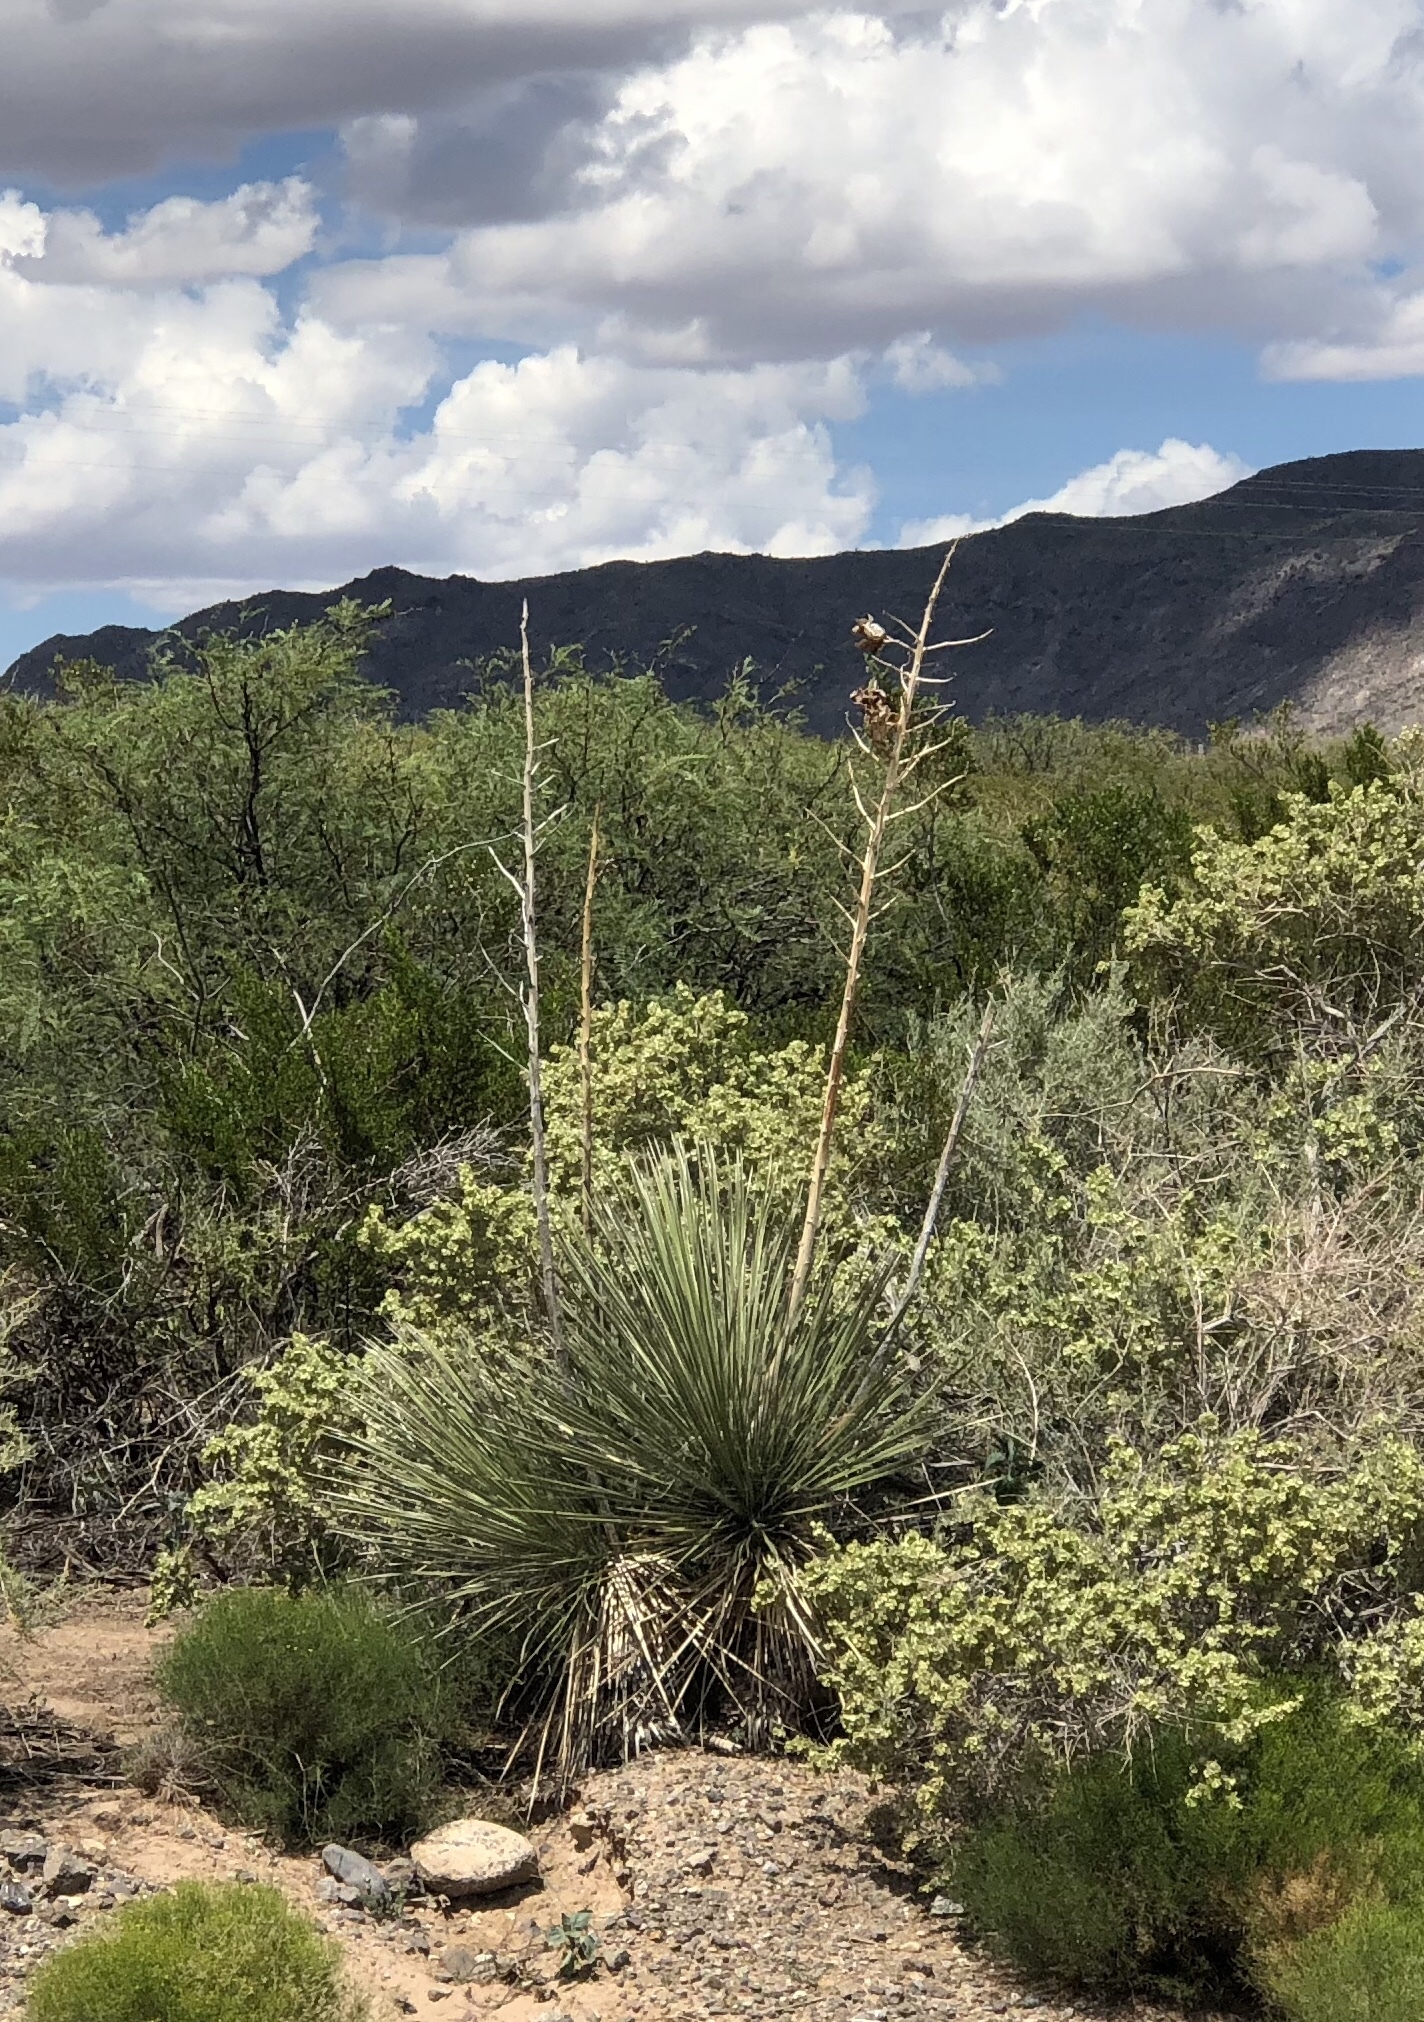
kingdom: Plantae
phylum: Tracheophyta
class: Liliopsida
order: Asparagales
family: Asparagaceae
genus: Yucca
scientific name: Yucca elata
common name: Palmella
